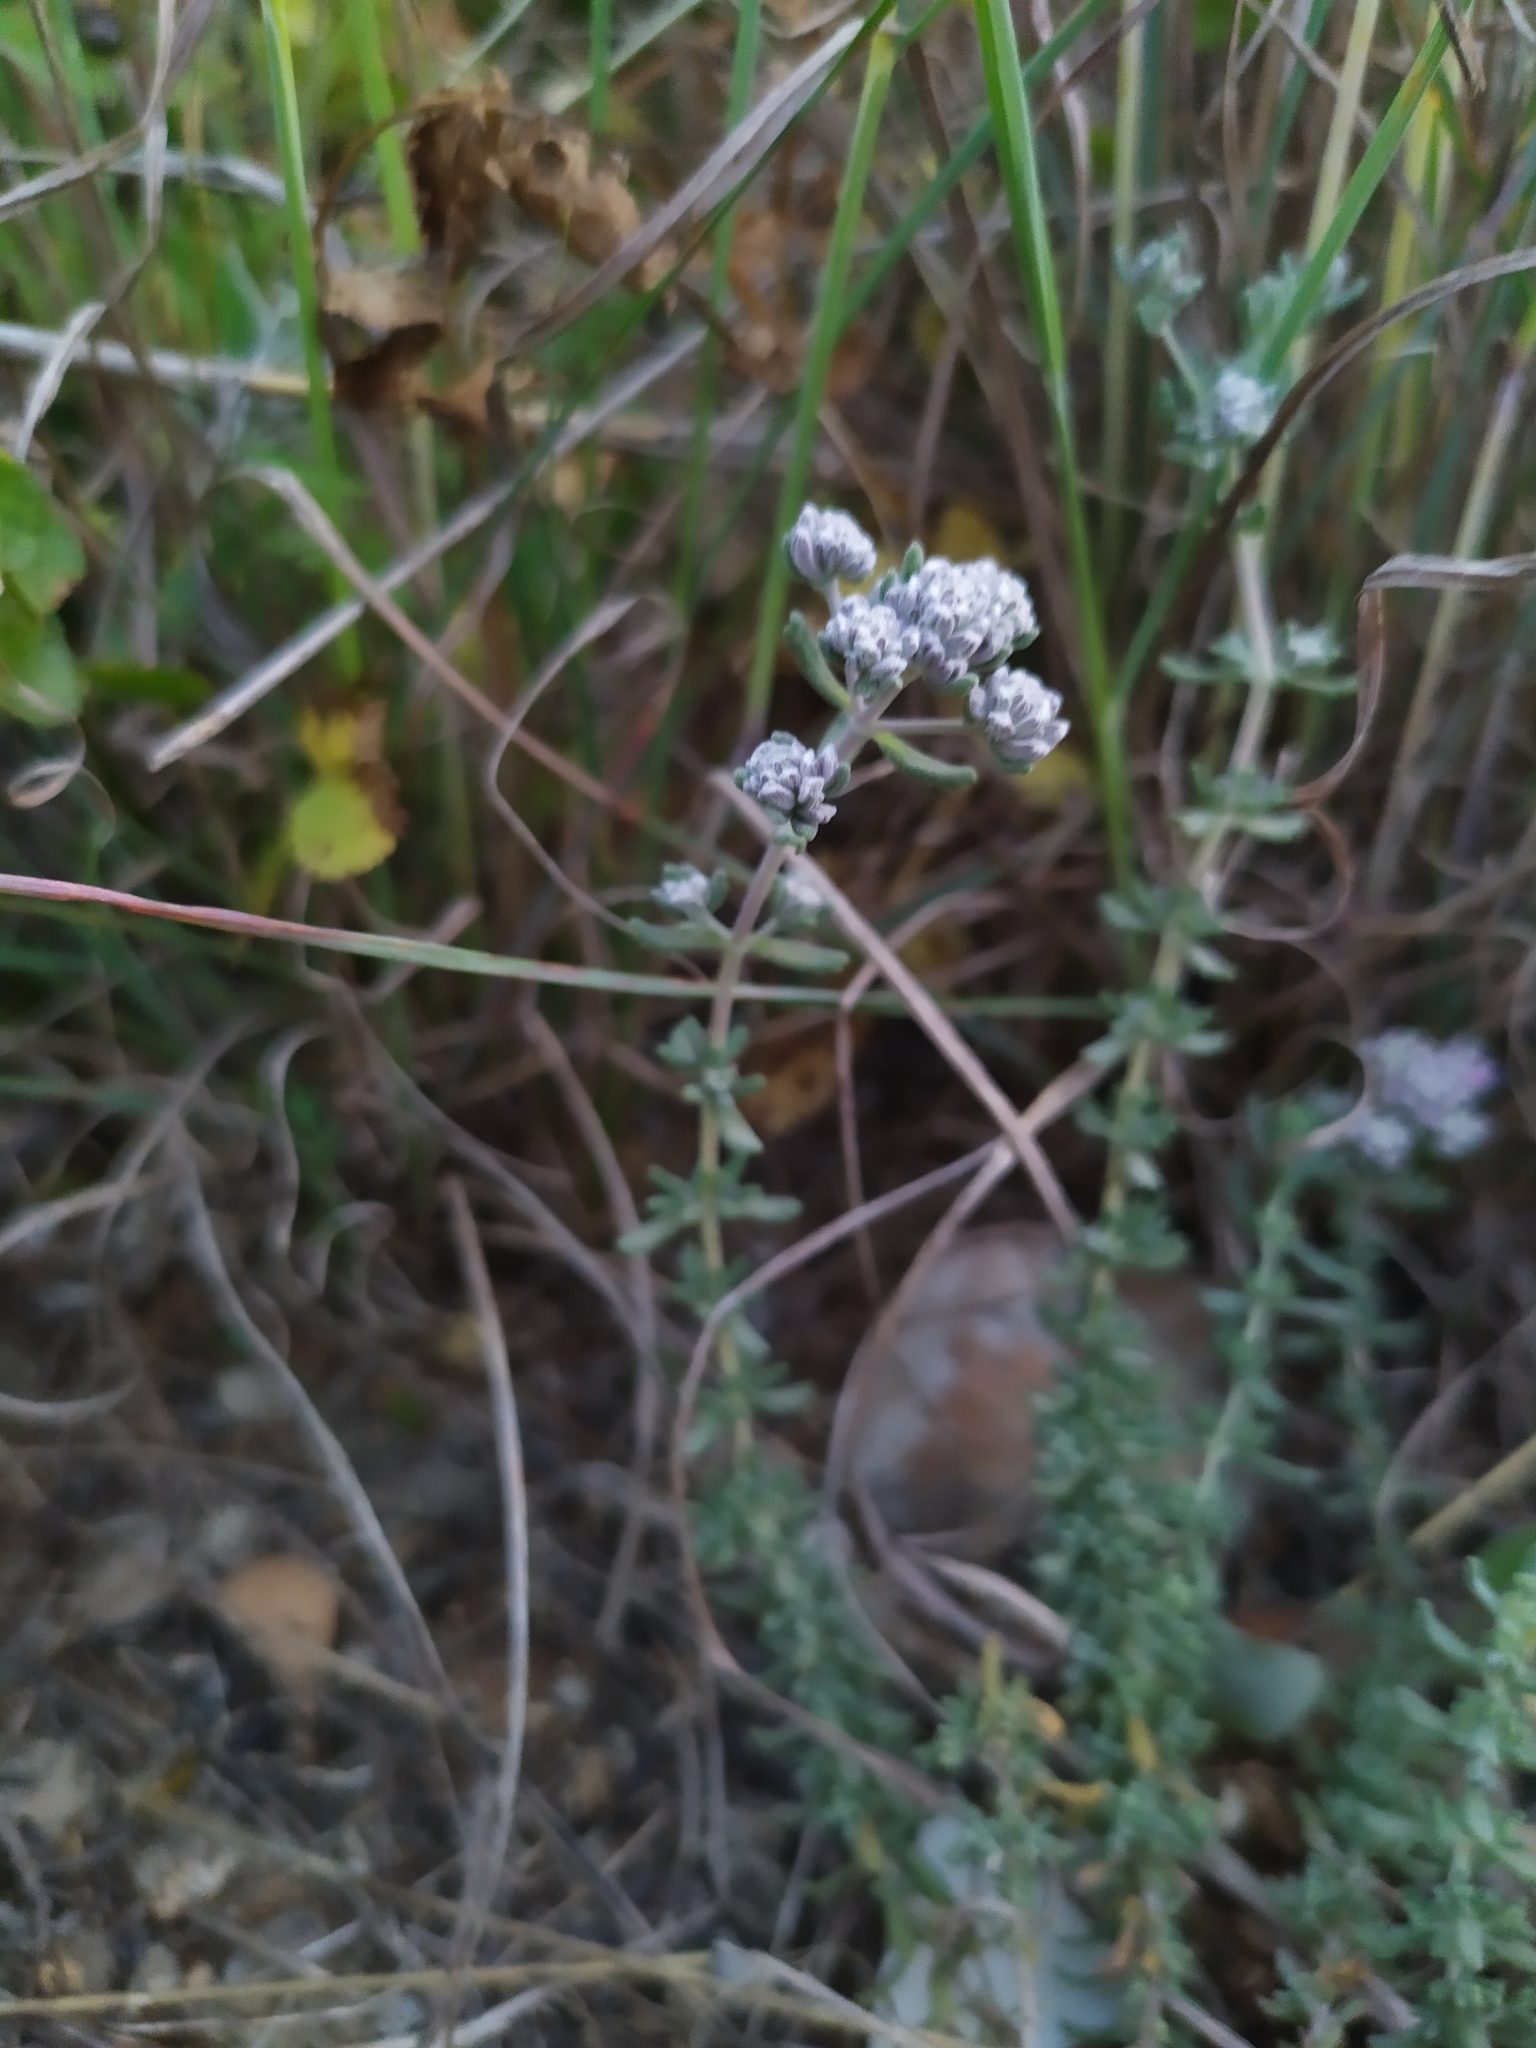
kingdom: Plantae
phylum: Tracheophyta
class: Magnoliopsida
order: Lamiales
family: Lamiaceae
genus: Teucrium
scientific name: Teucrium capitatum
